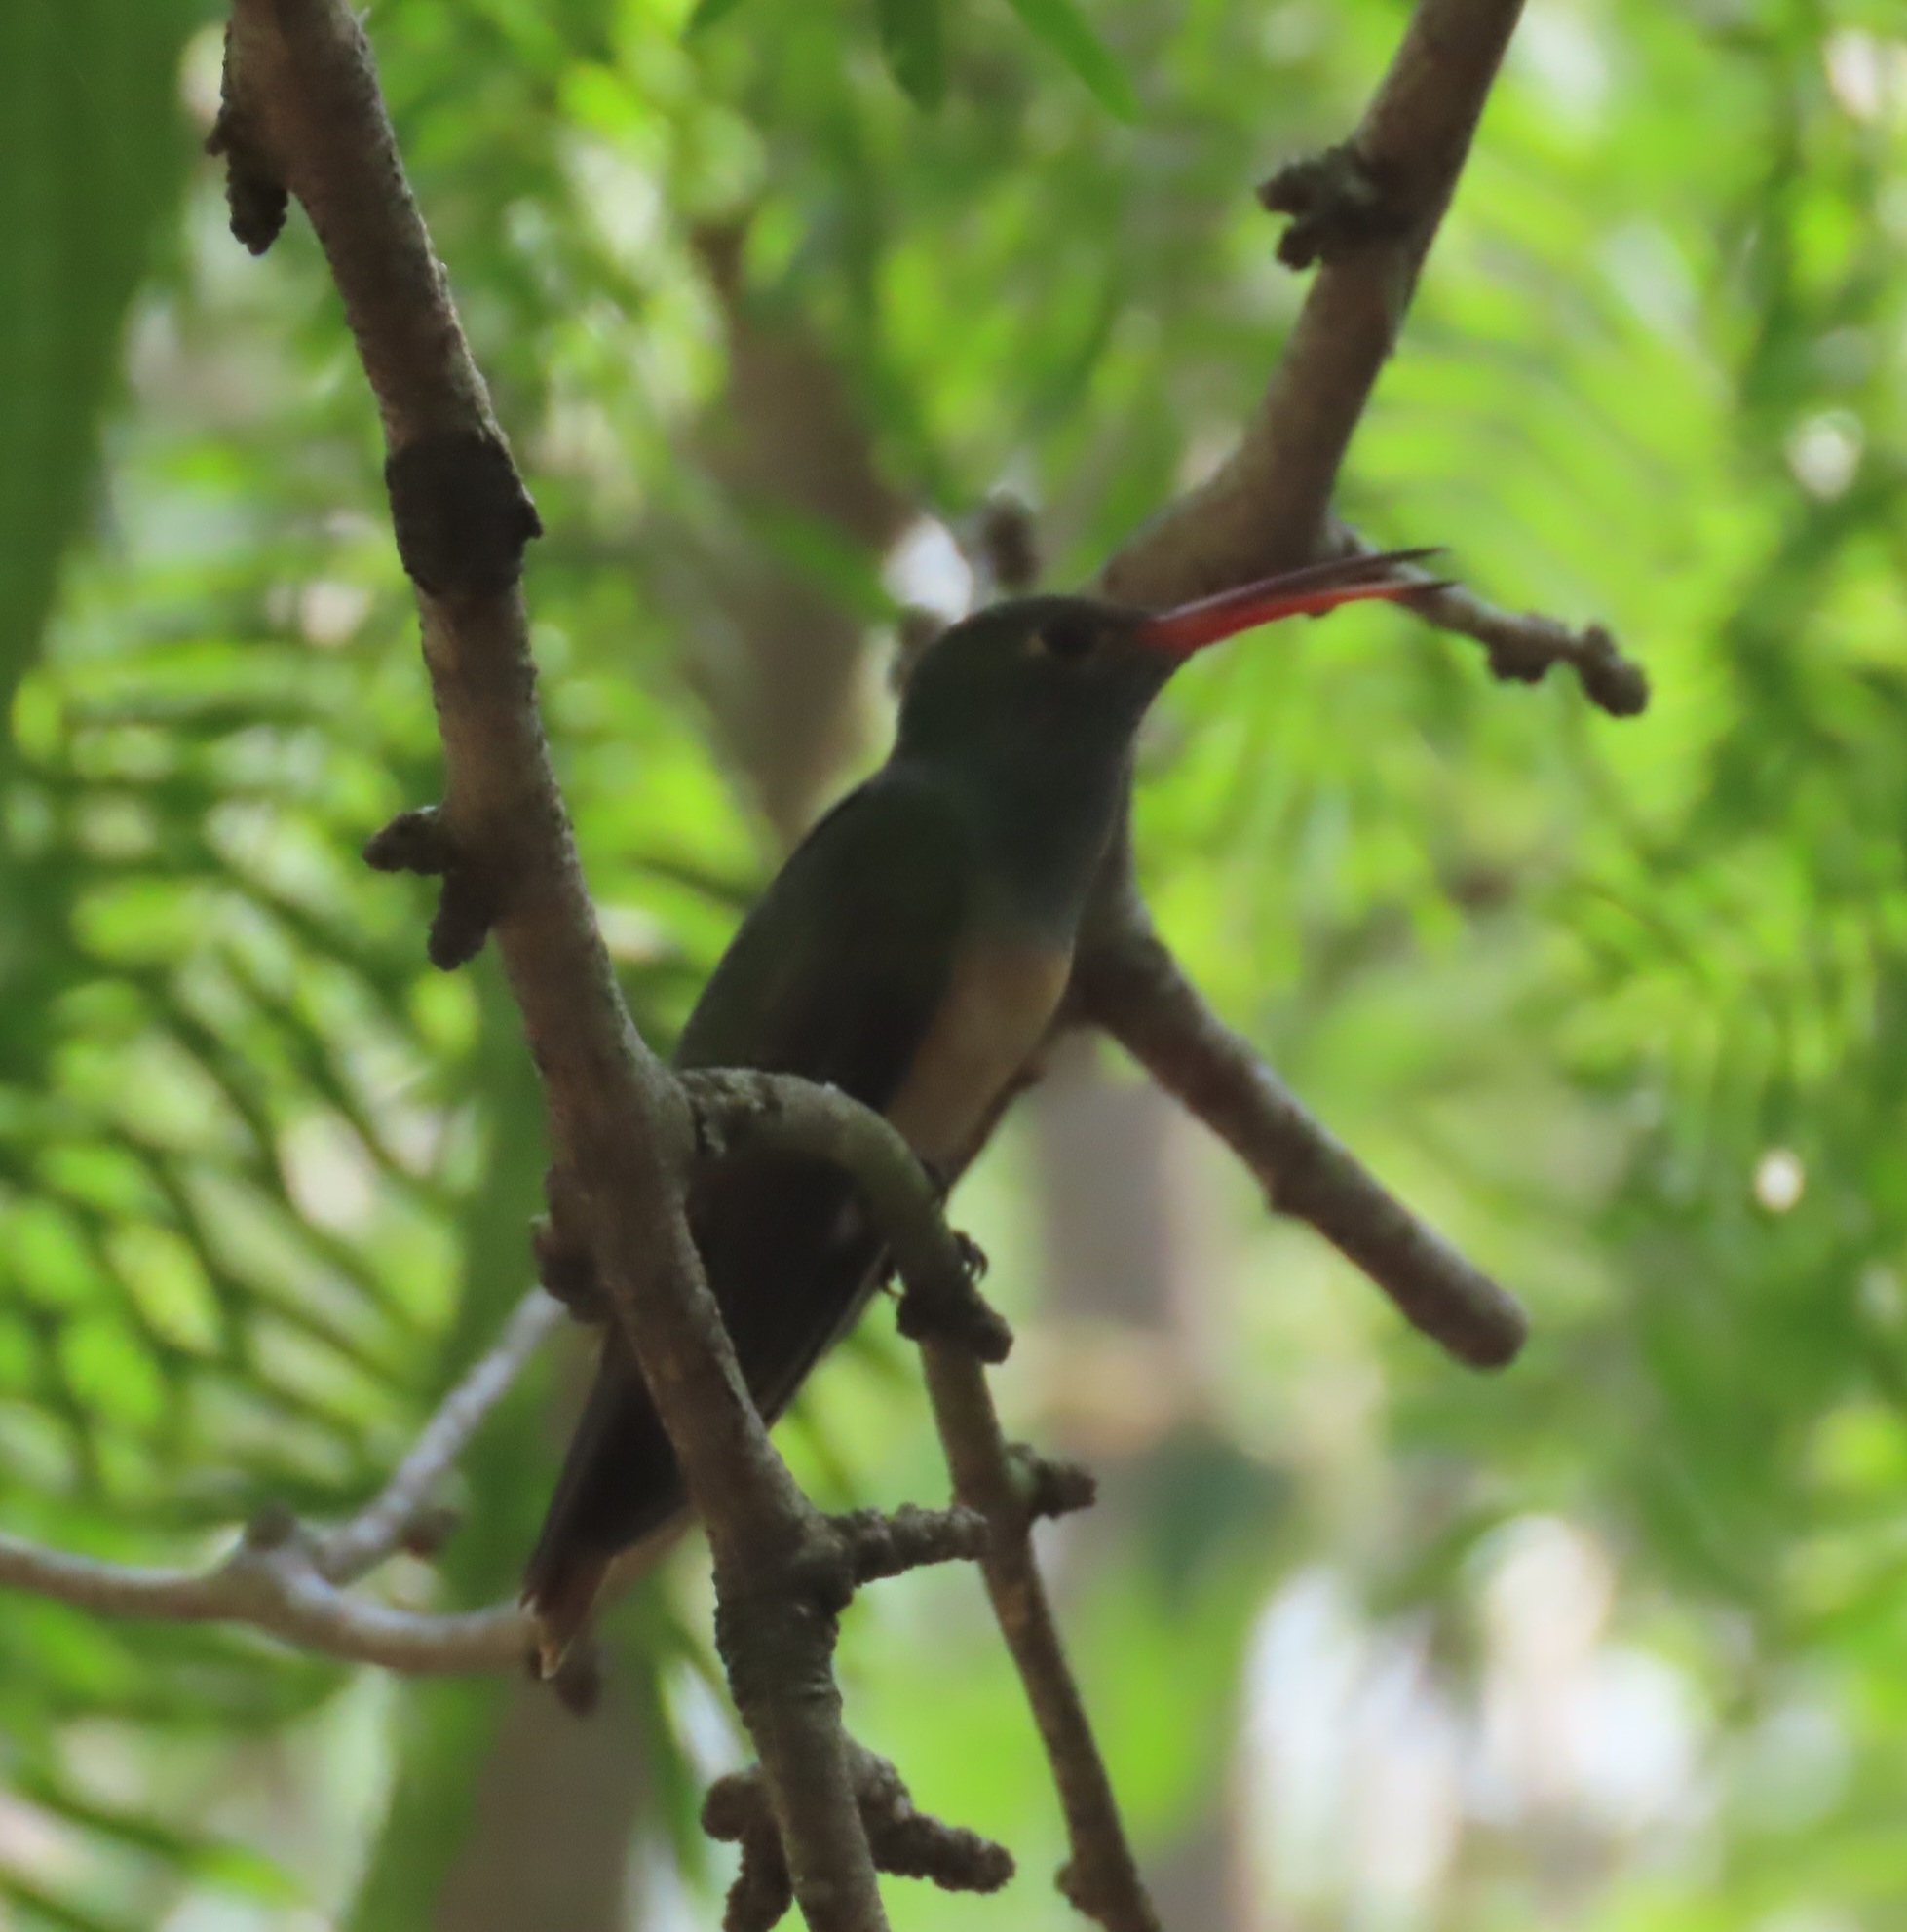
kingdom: Animalia
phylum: Chordata
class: Aves
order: Apodiformes
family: Trochilidae
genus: Amazilia
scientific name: Amazilia yucatanensis
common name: Buff-bellied hummingbird
